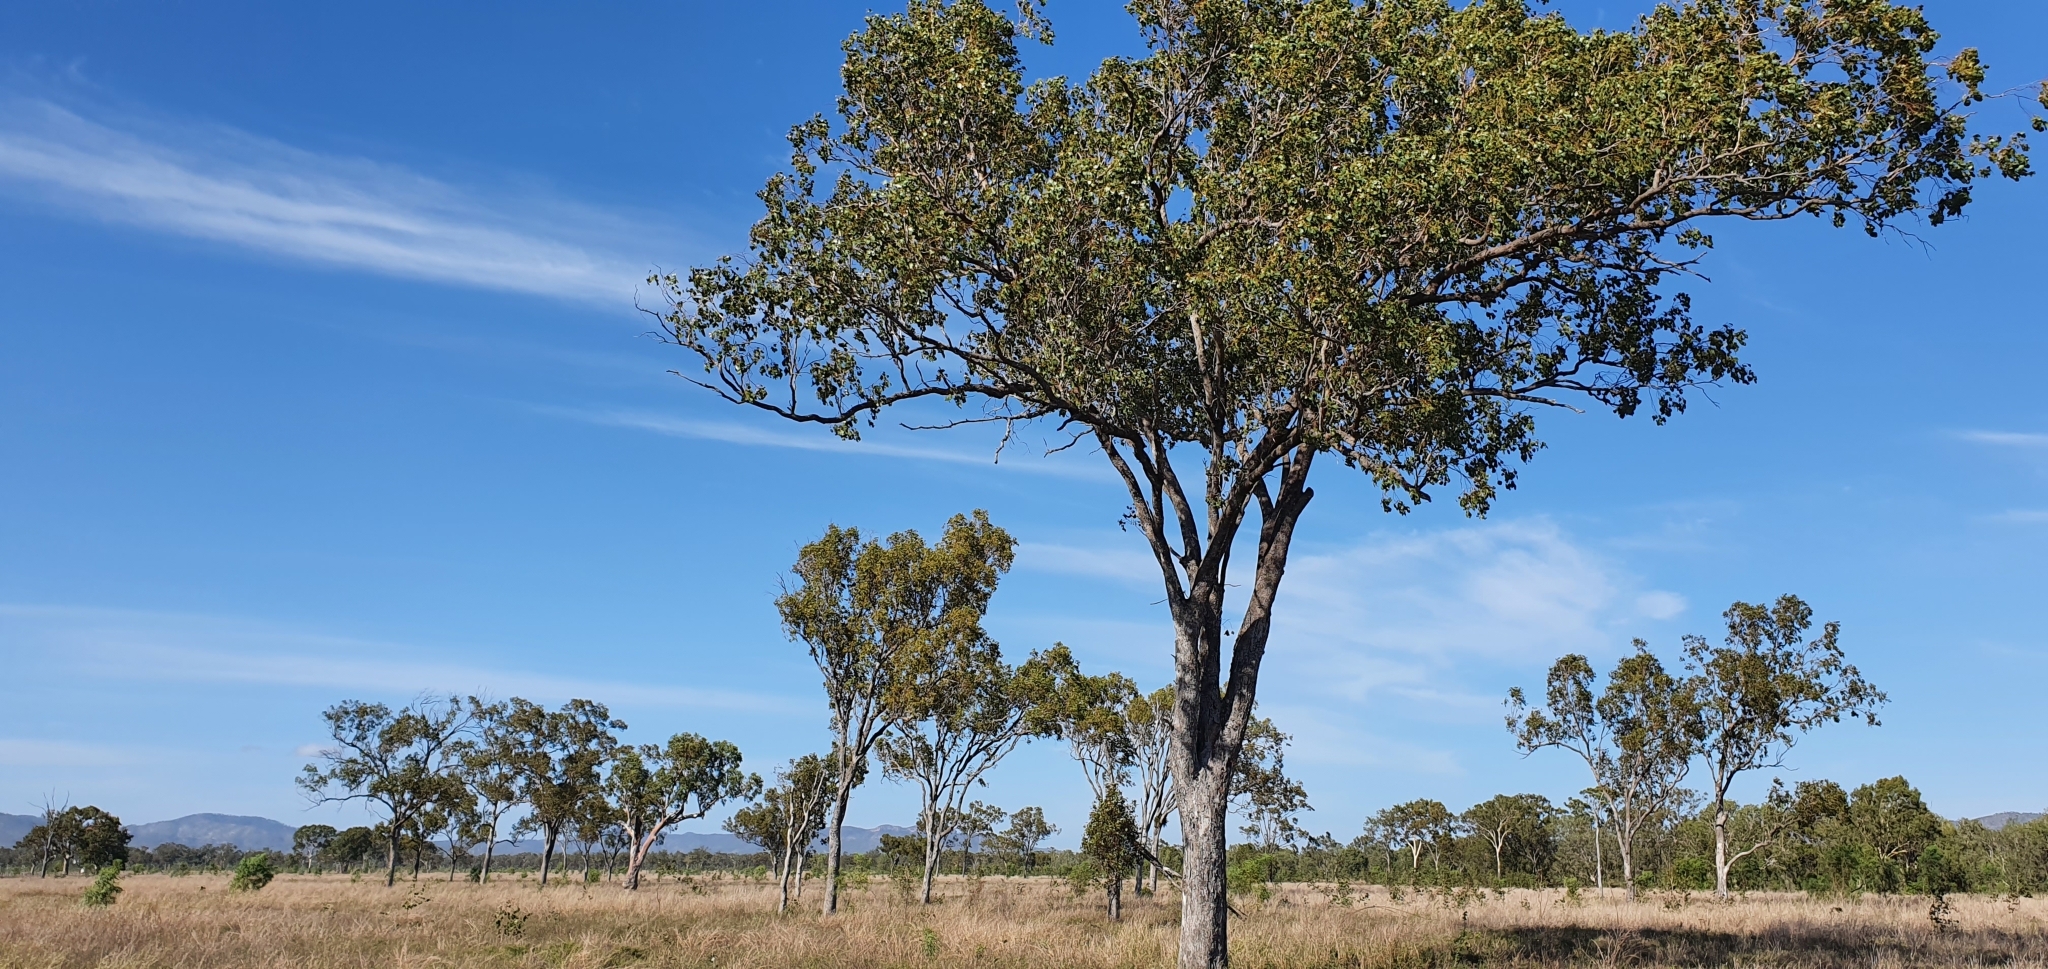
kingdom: Plantae
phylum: Tracheophyta
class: Magnoliopsida
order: Myrtales
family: Myrtaceae
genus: Eucalyptus
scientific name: Eucalyptus populnea
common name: Bimble box
